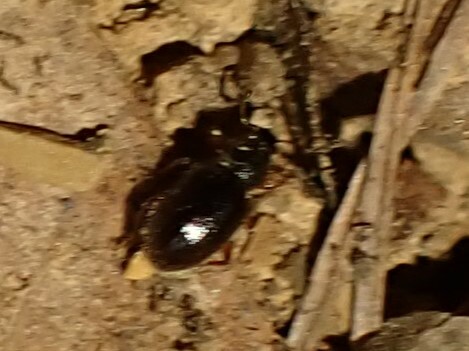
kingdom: Animalia
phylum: Arthropoda
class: Insecta
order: Coleoptera
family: Curculionidae
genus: Exomias
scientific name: Exomias pellucidus
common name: Hairy spider weevil
